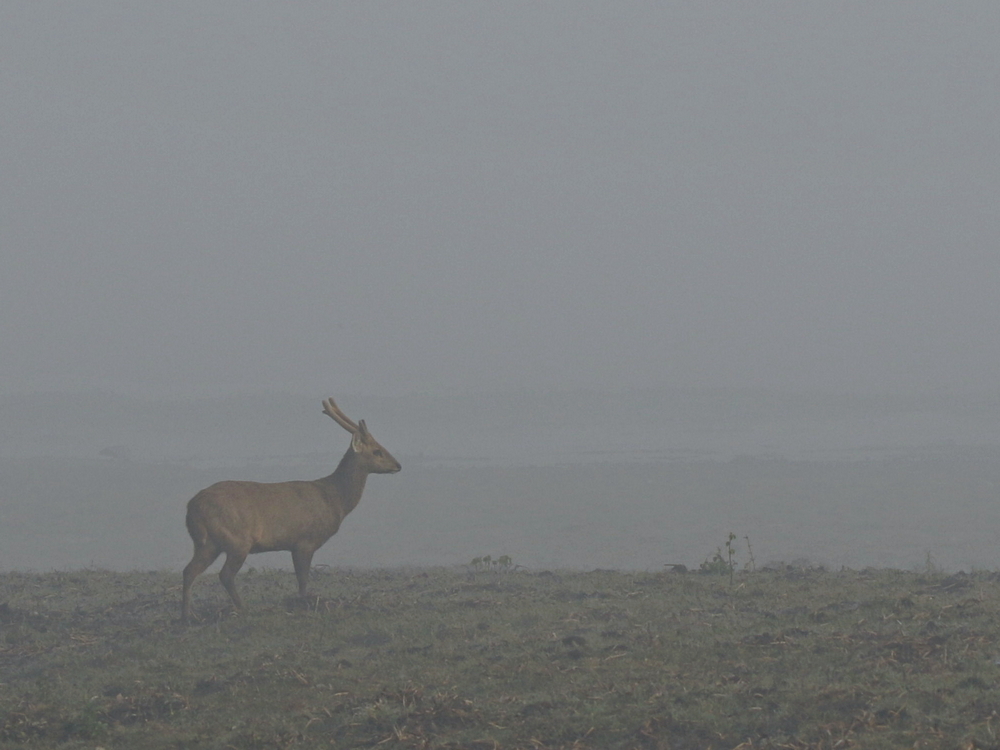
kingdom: Animalia
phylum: Chordata
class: Mammalia
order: Artiodactyla
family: Cervidae
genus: Axis
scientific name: Axis porcinus
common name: Hog deer
